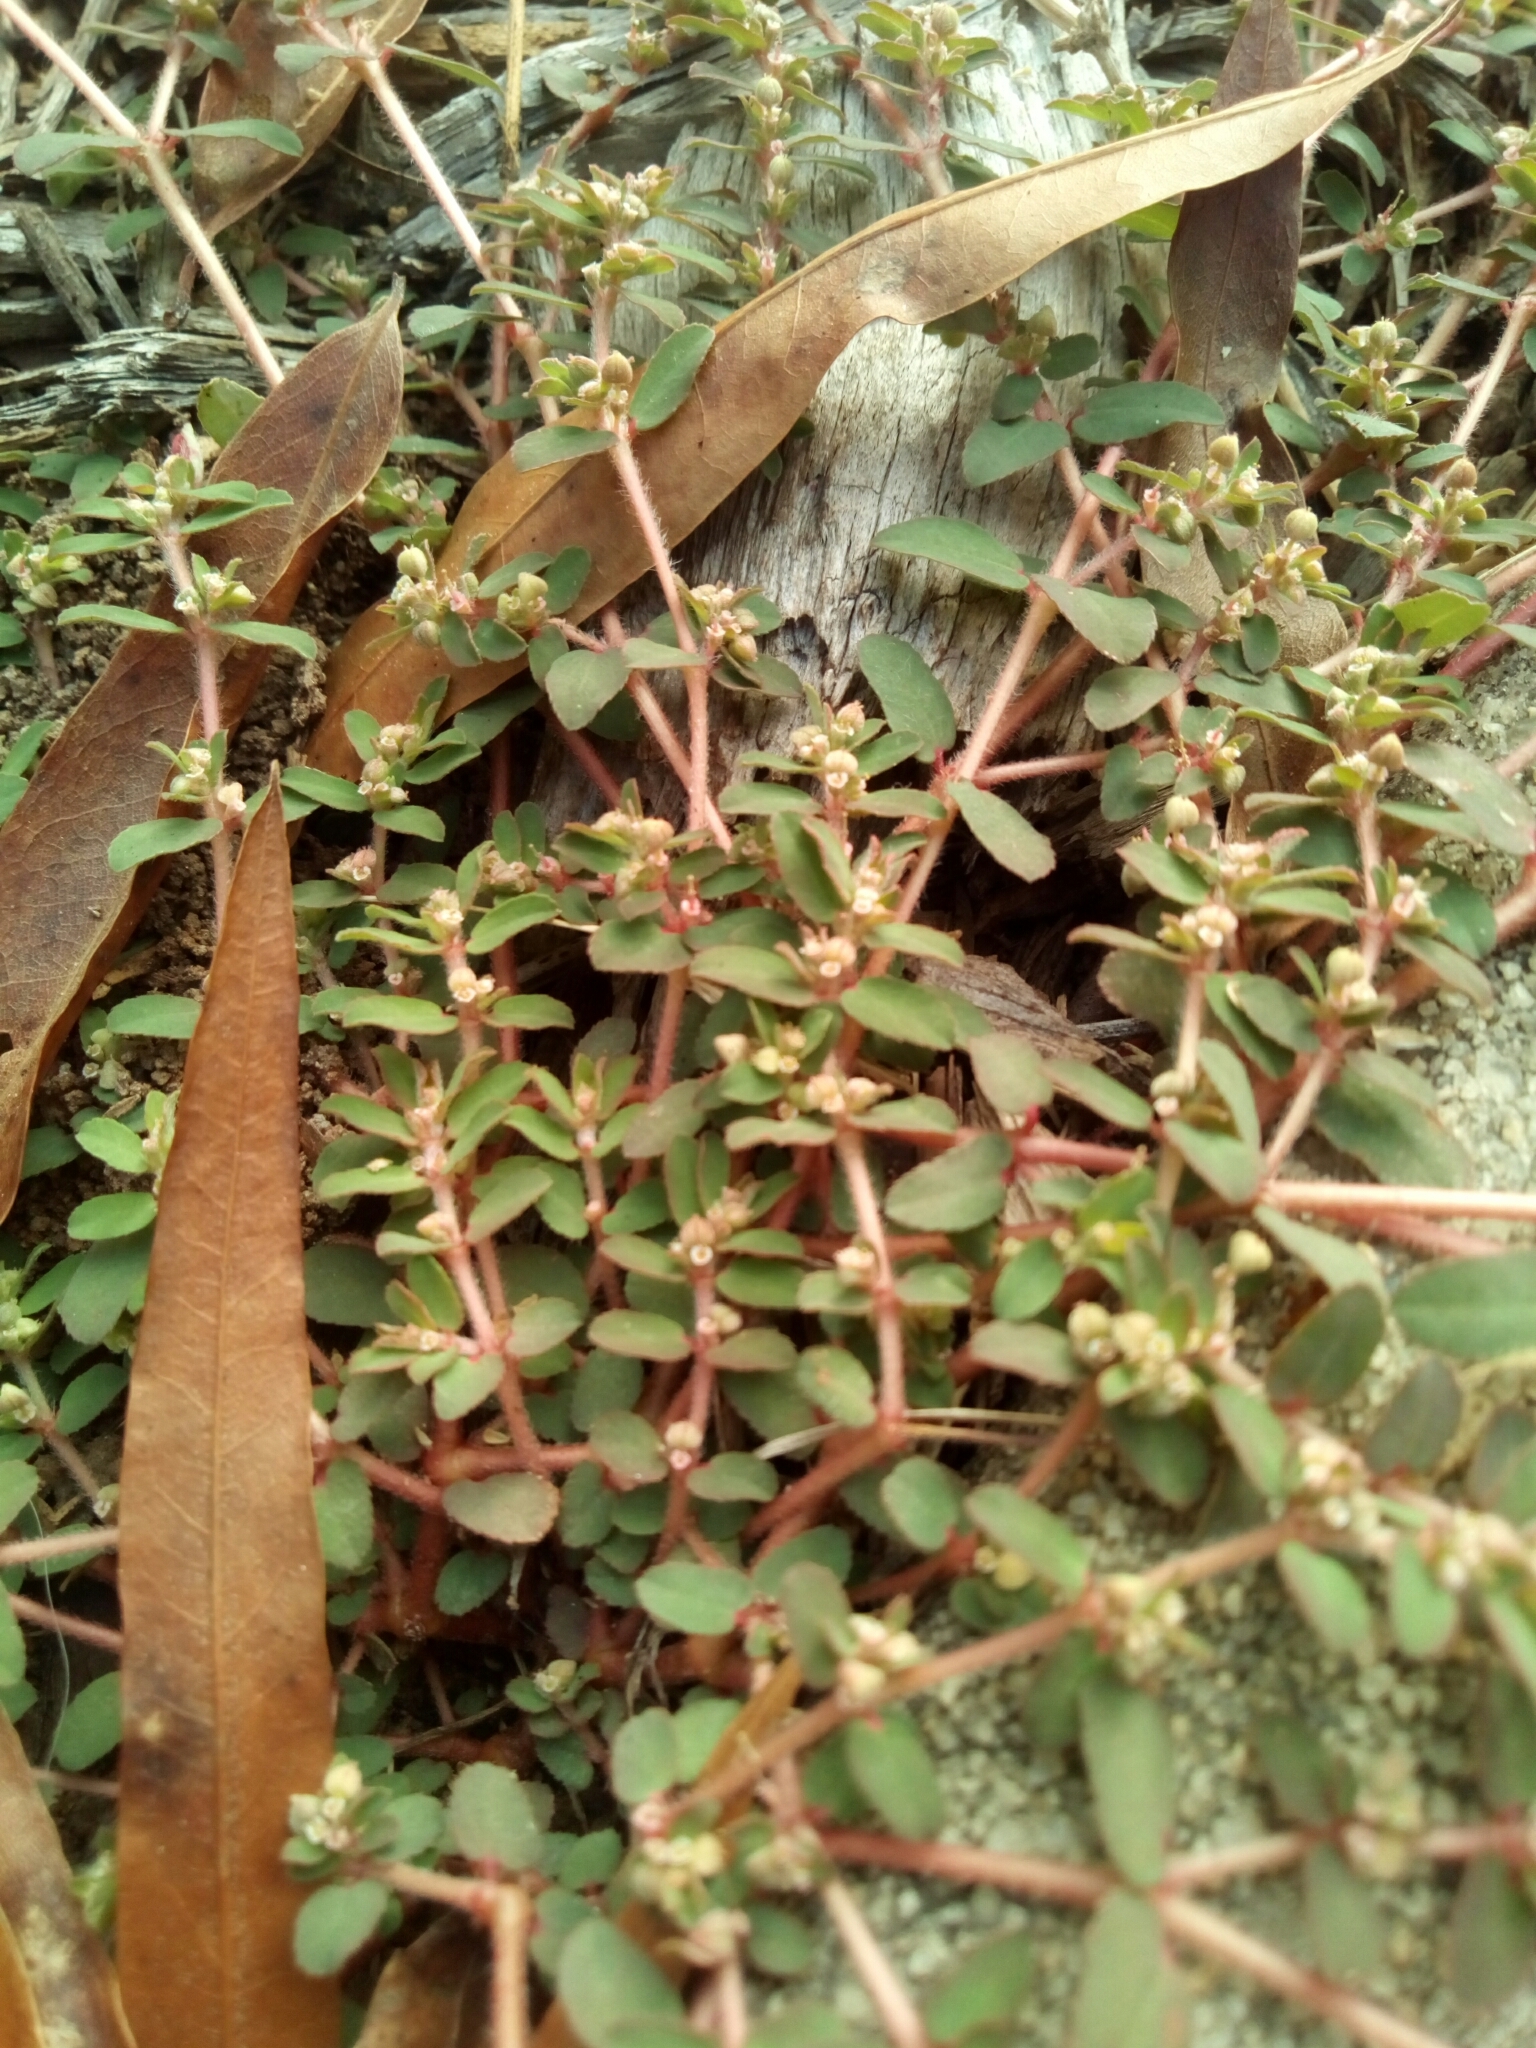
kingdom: Plantae
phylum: Tracheophyta
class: Magnoliopsida
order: Malpighiales
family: Euphorbiaceae
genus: Euphorbia
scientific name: Euphorbia maculata
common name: Spotted spurge
